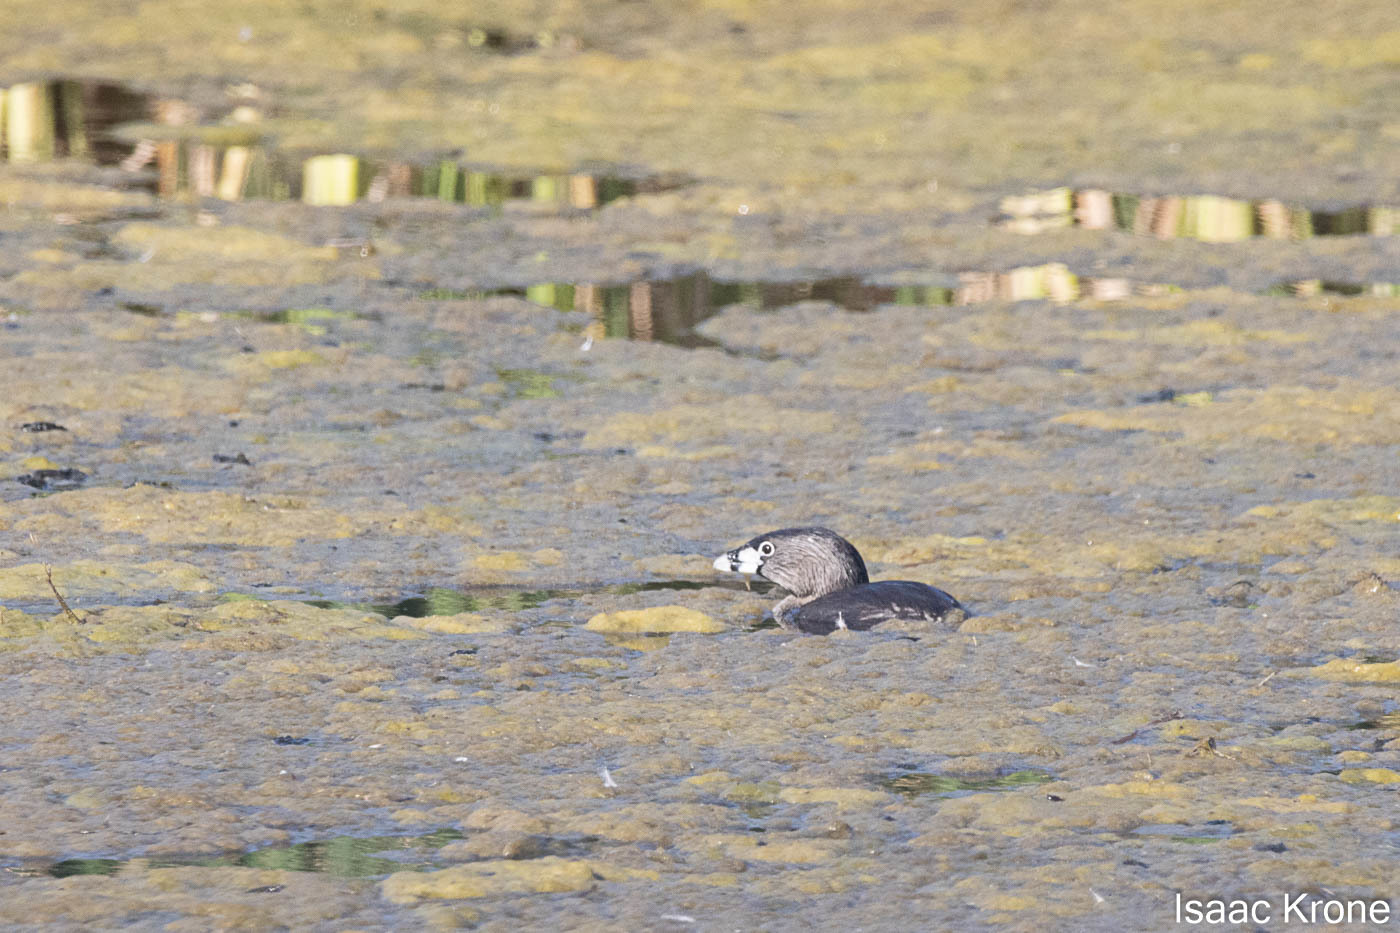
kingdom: Animalia
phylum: Chordata
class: Aves
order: Podicipediformes
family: Podicipedidae
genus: Podilymbus
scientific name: Podilymbus podiceps
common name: Pied-billed grebe
